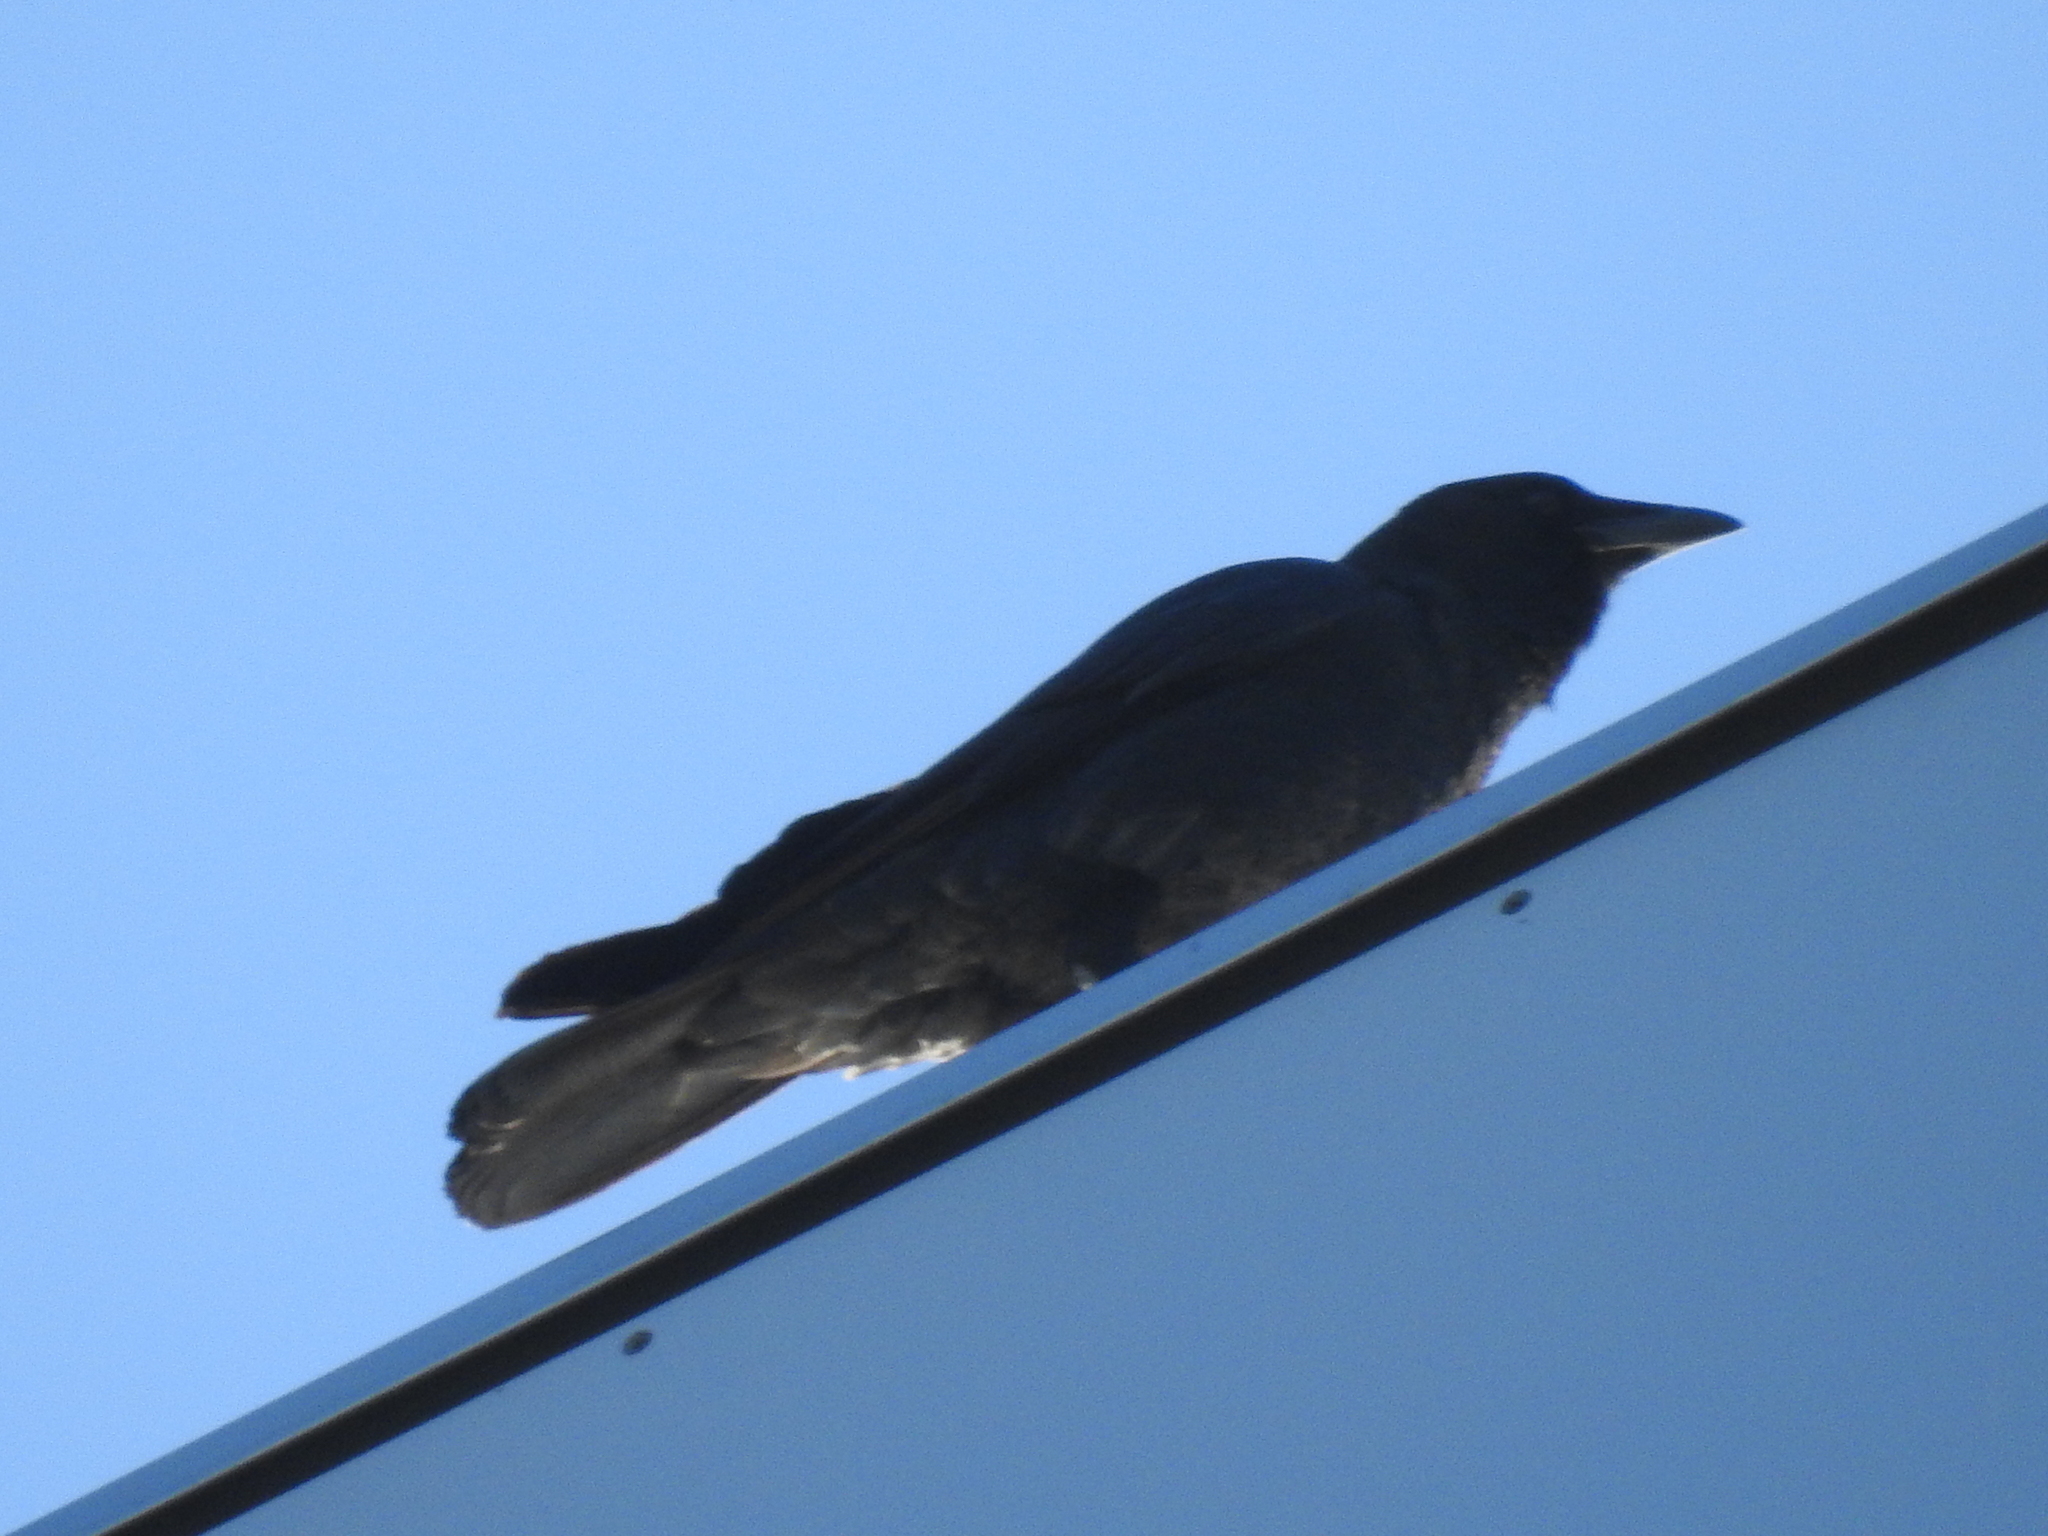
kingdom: Animalia
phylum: Chordata
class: Aves
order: Passeriformes
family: Corvidae
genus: Corvus
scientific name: Corvus brachyrhynchos
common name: American crow
